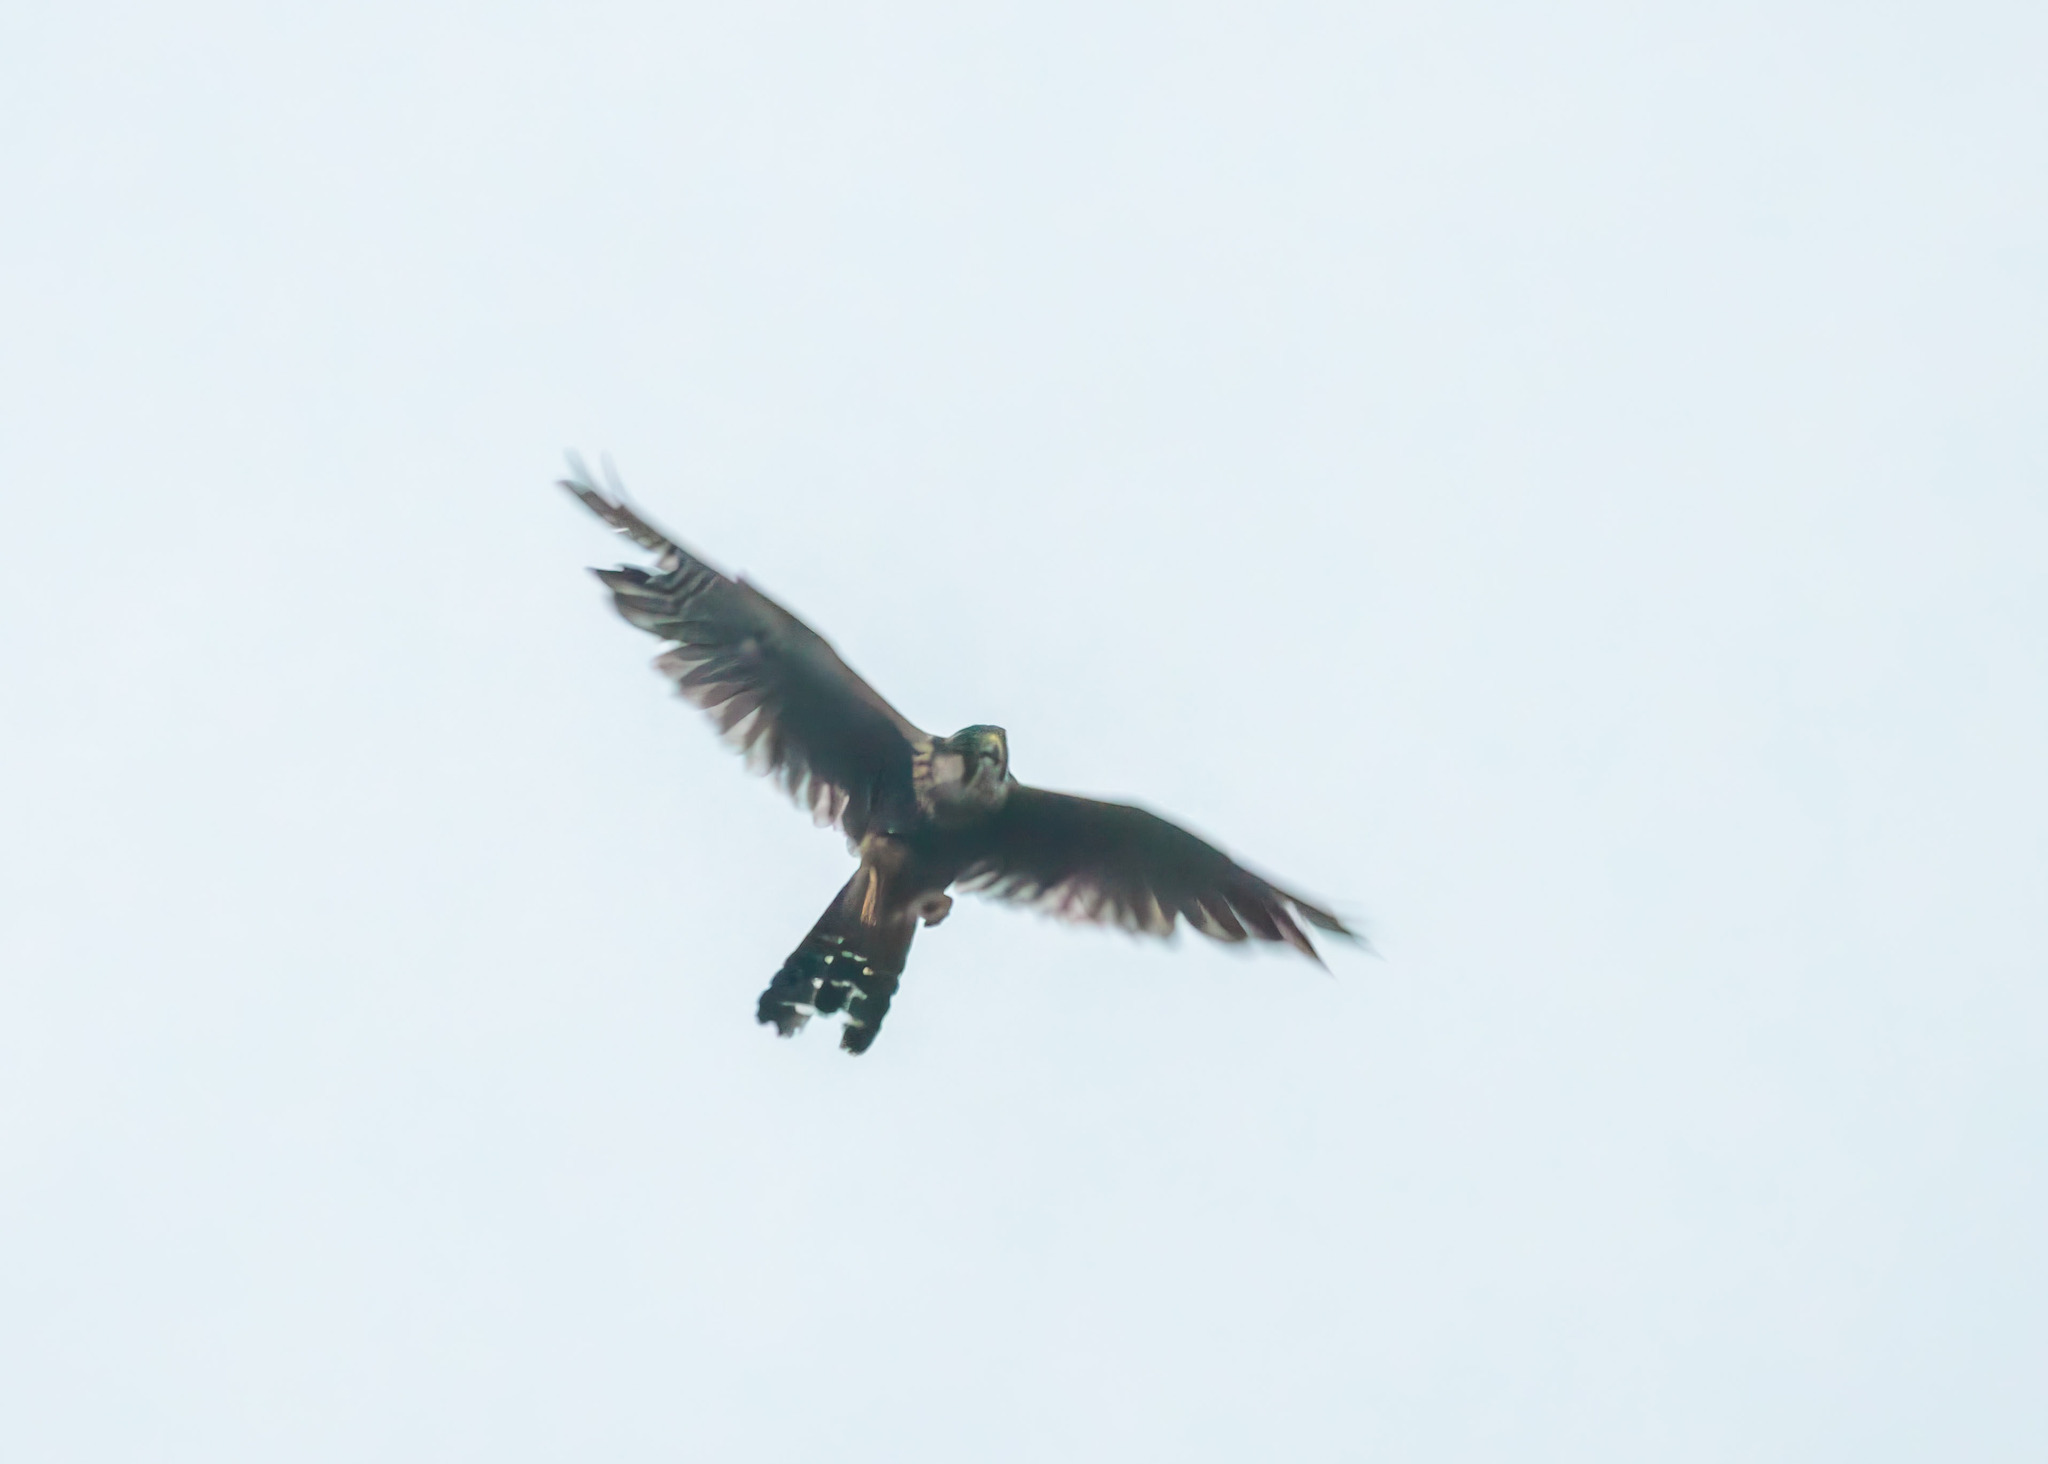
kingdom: Animalia
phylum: Chordata
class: Aves
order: Falconiformes
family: Falconidae
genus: Falco
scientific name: Falco femoralis
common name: Aplomado falcon
